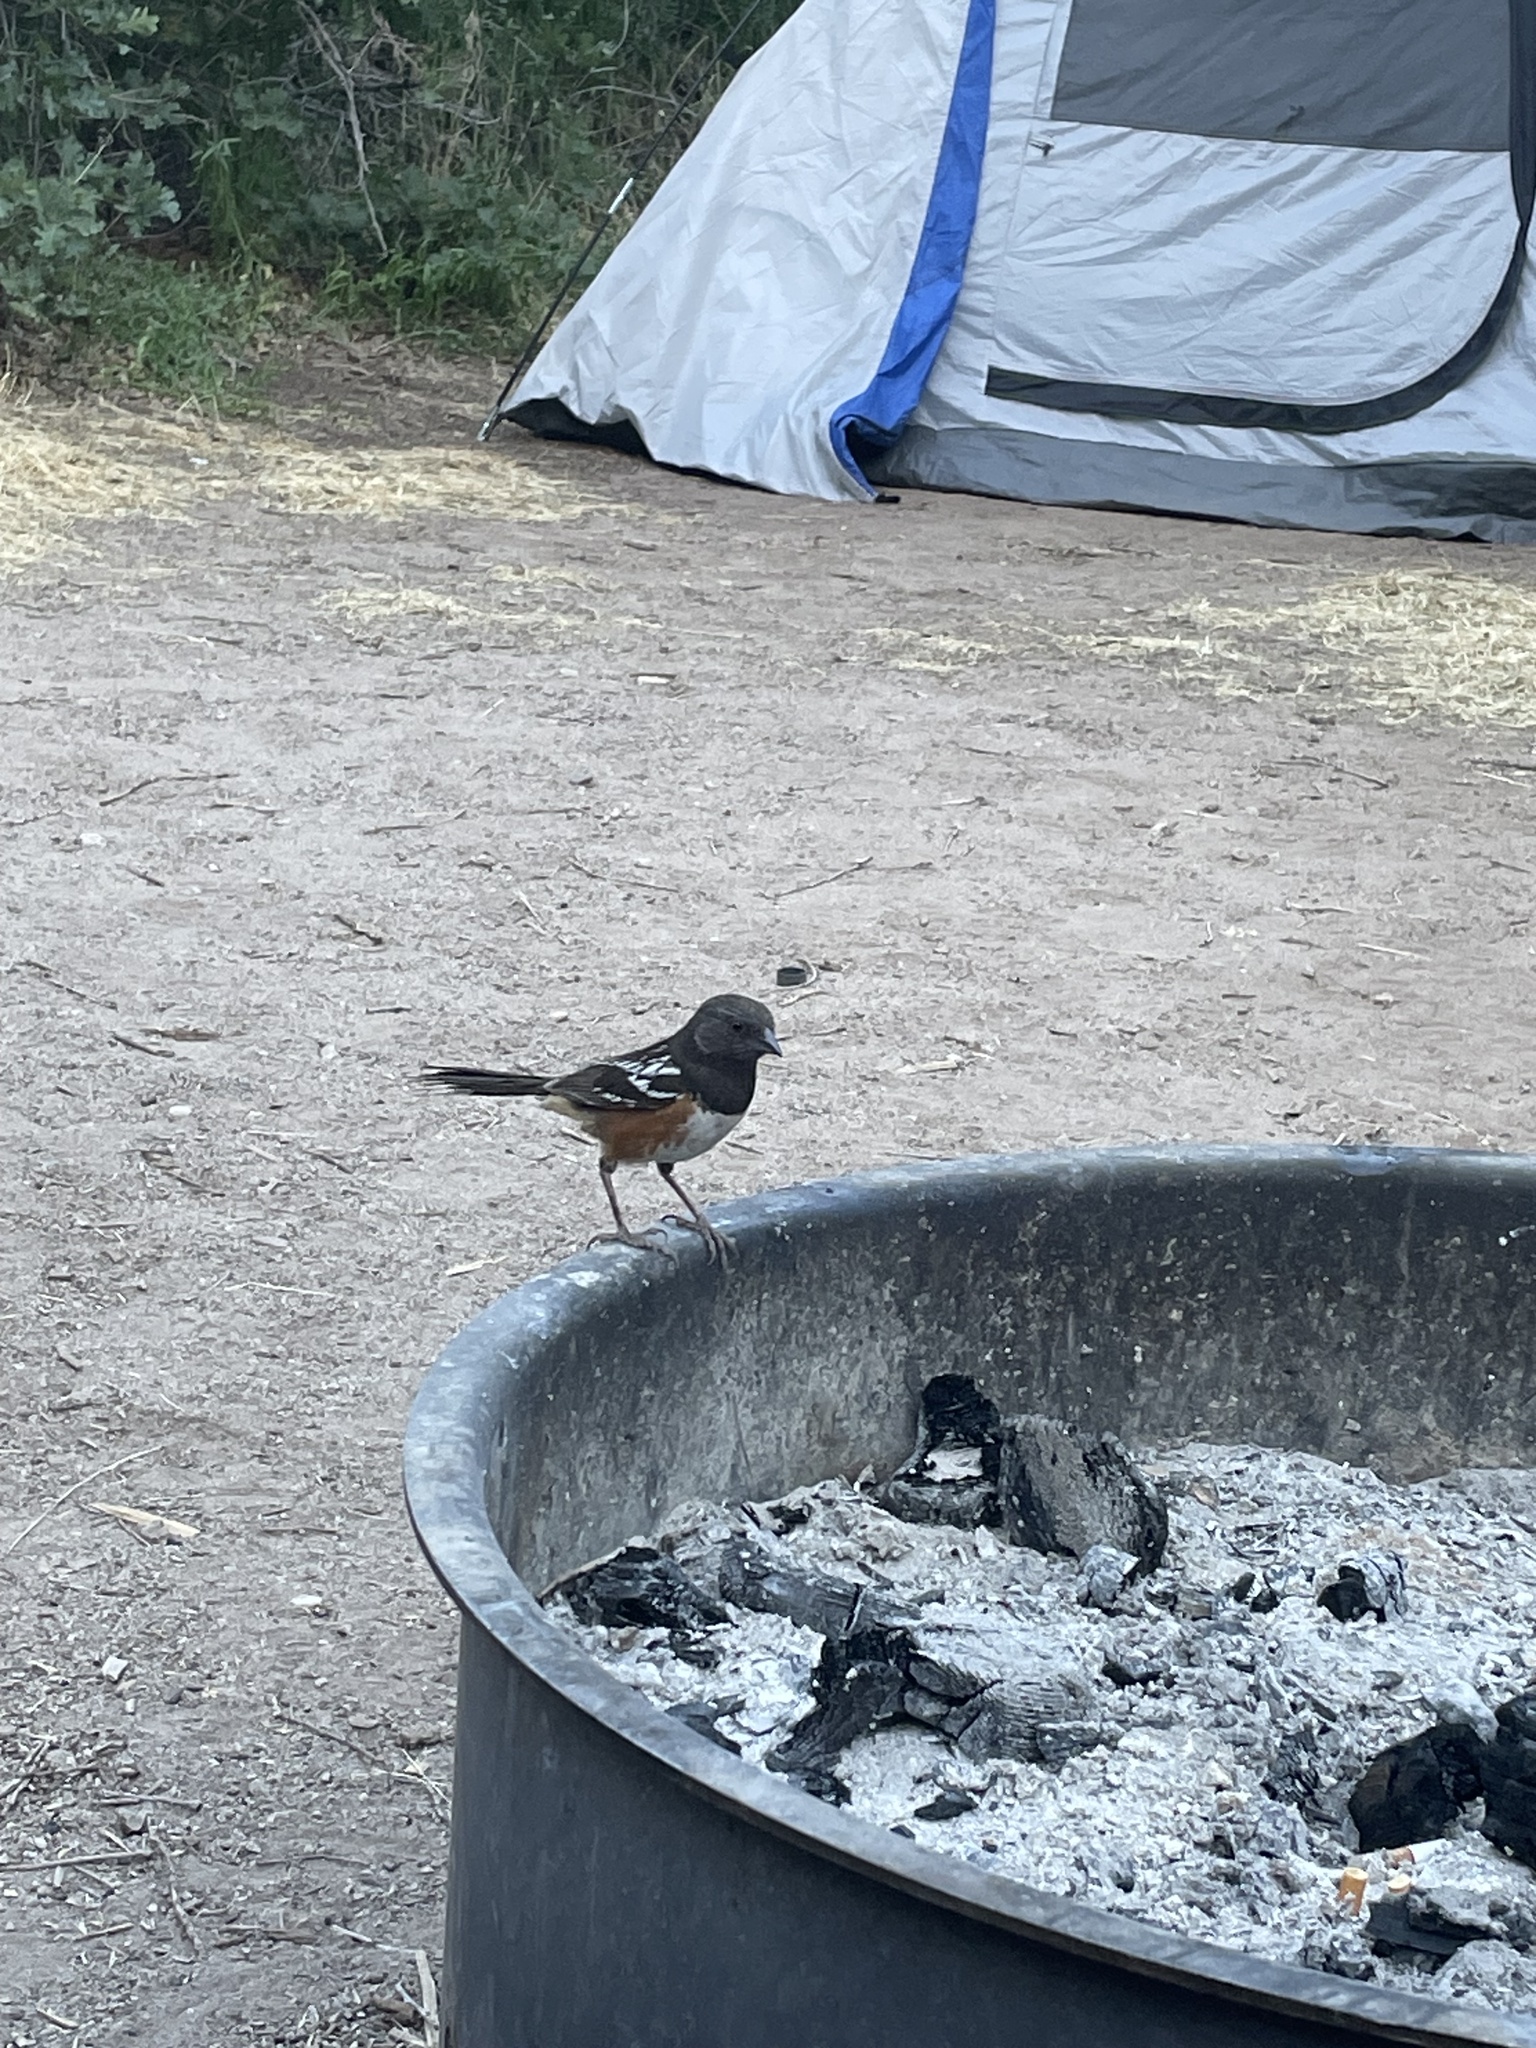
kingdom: Animalia
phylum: Chordata
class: Aves
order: Passeriformes
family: Passerellidae
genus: Pipilo
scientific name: Pipilo maculatus
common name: Spotted towhee
